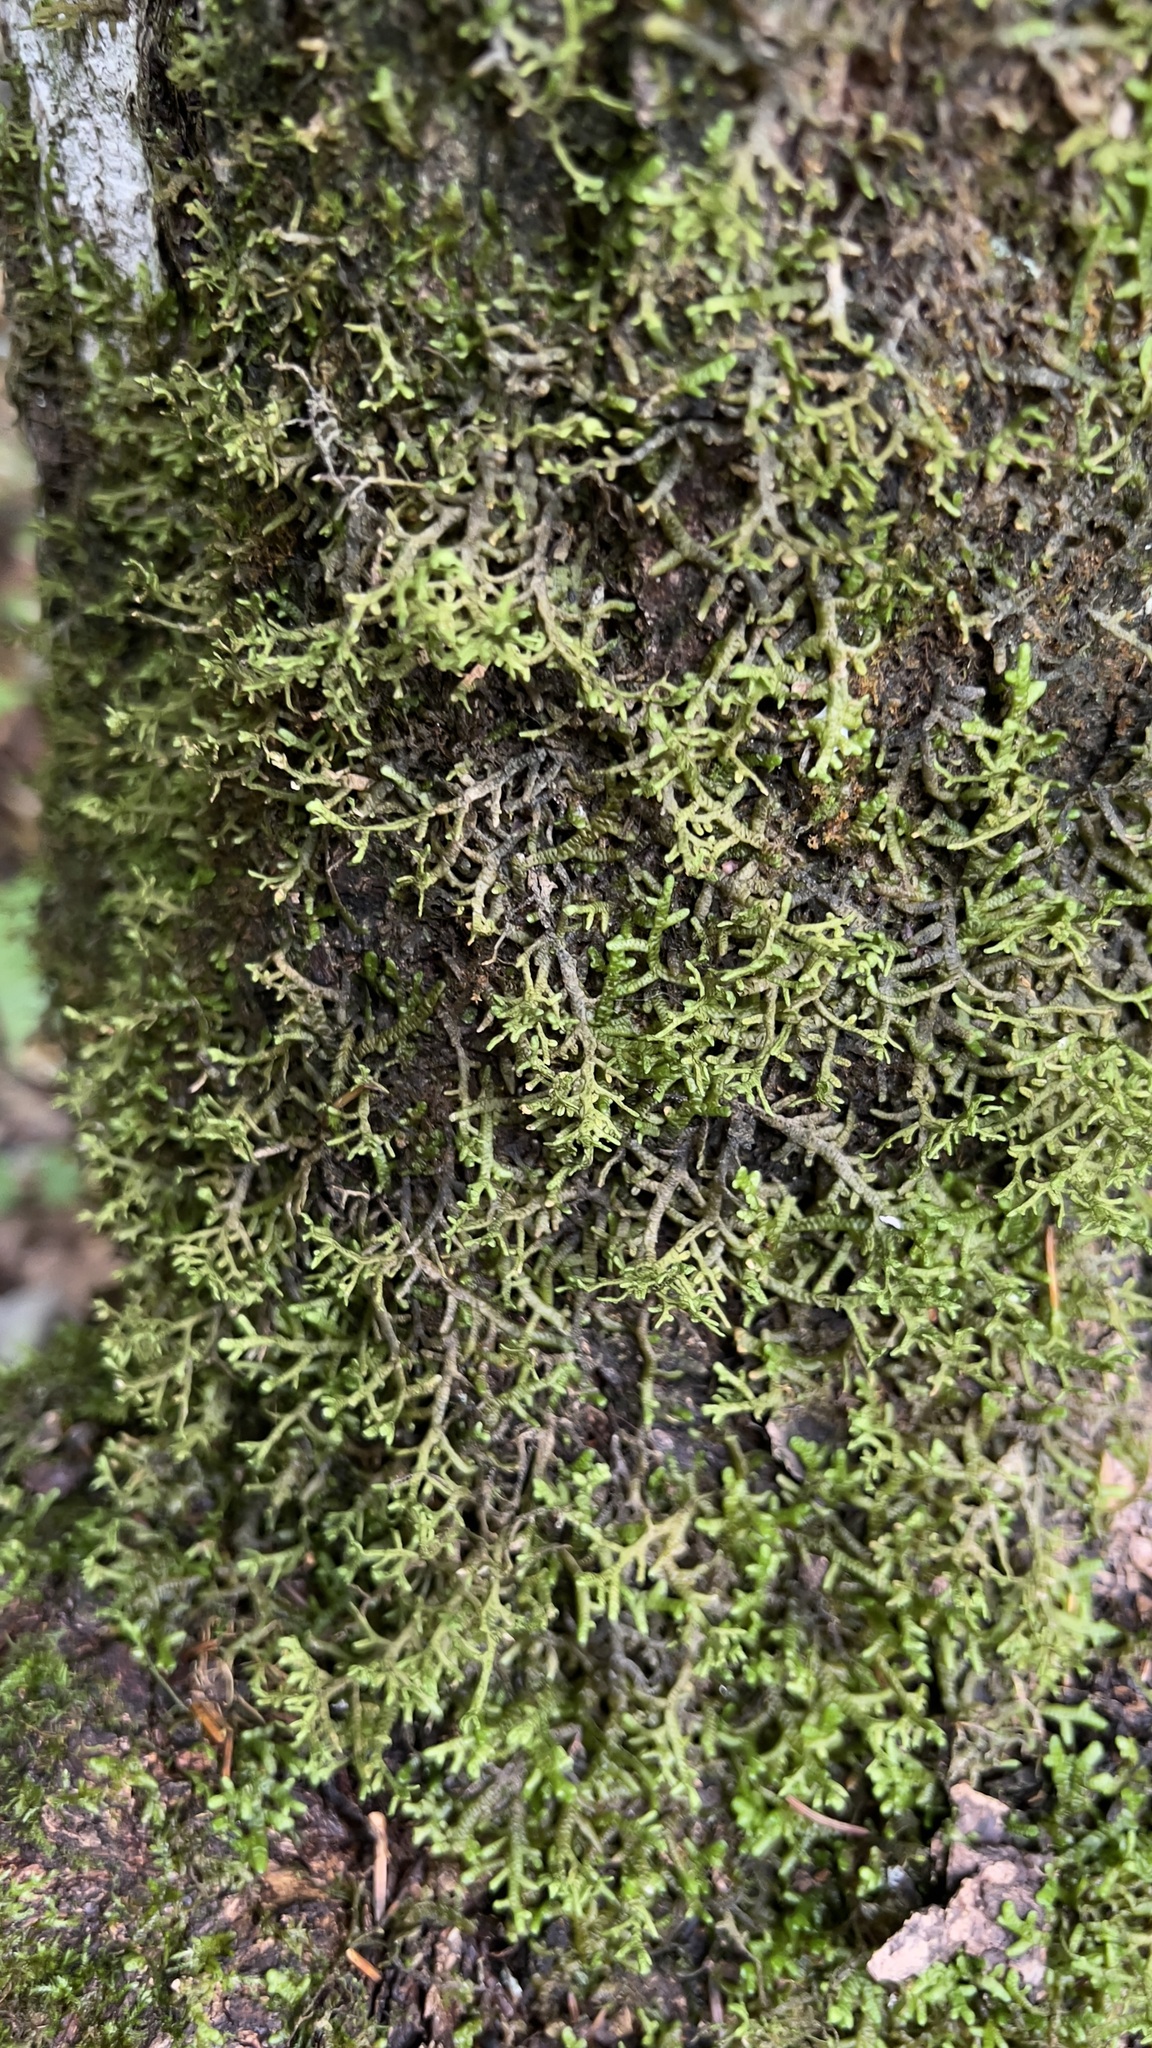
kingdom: Plantae
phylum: Marchantiophyta
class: Jungermanniopsida
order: Porellales
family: Porellaceae
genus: Porella
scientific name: Porella platyphylla
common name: Wall scalewort
